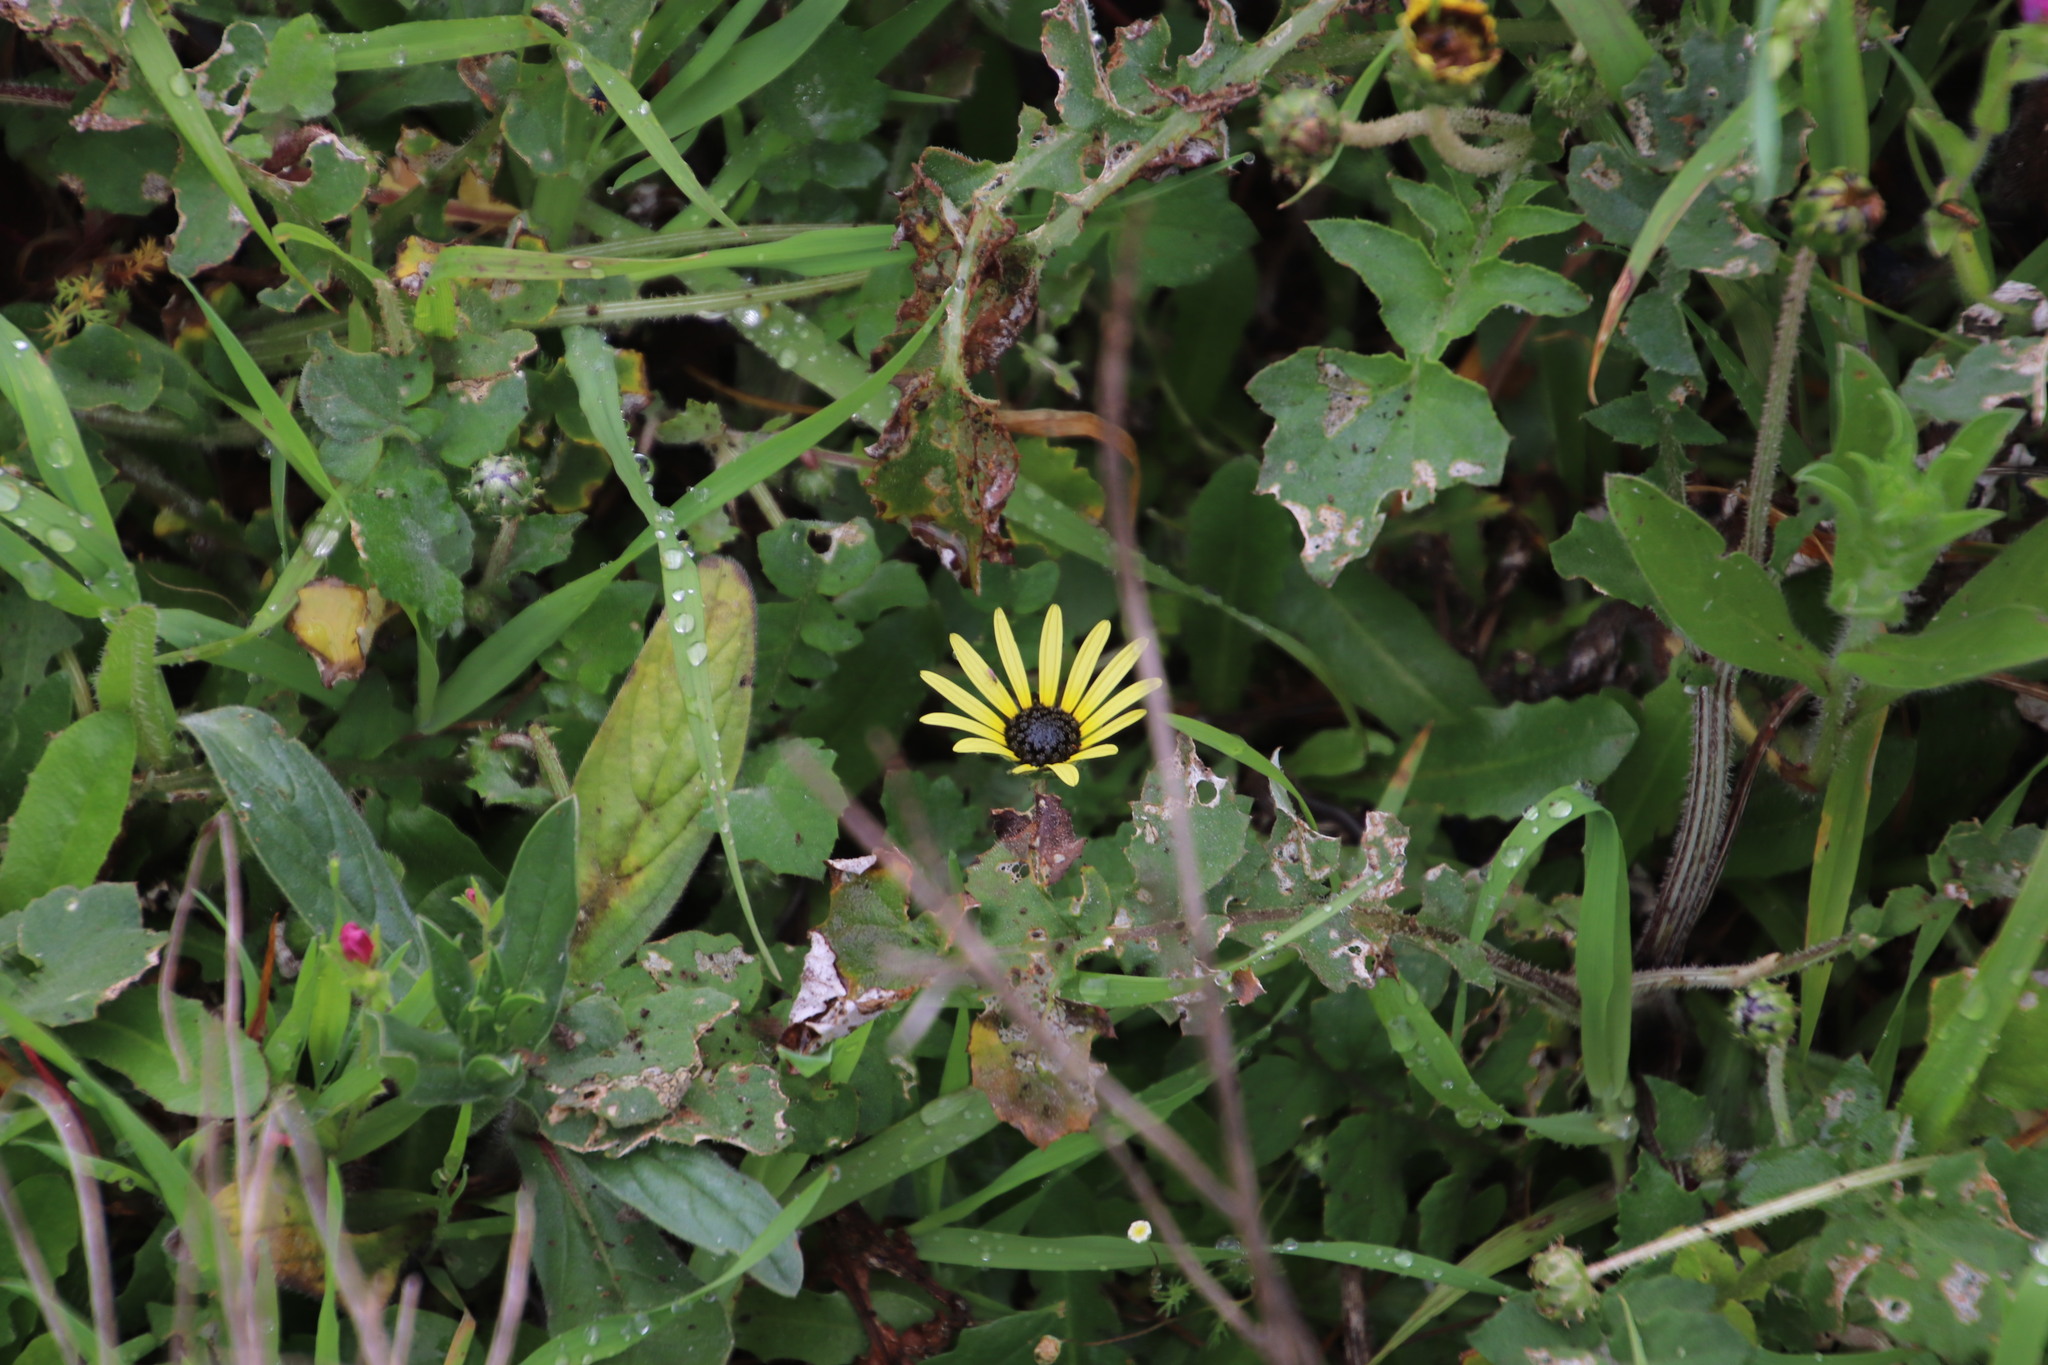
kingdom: Plantae
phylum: Tracheophyta
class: Magnoliopsida
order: Asterales
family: Asteraceae
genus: Arctotheca
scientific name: Arctotheca calendula
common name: Capeweed
